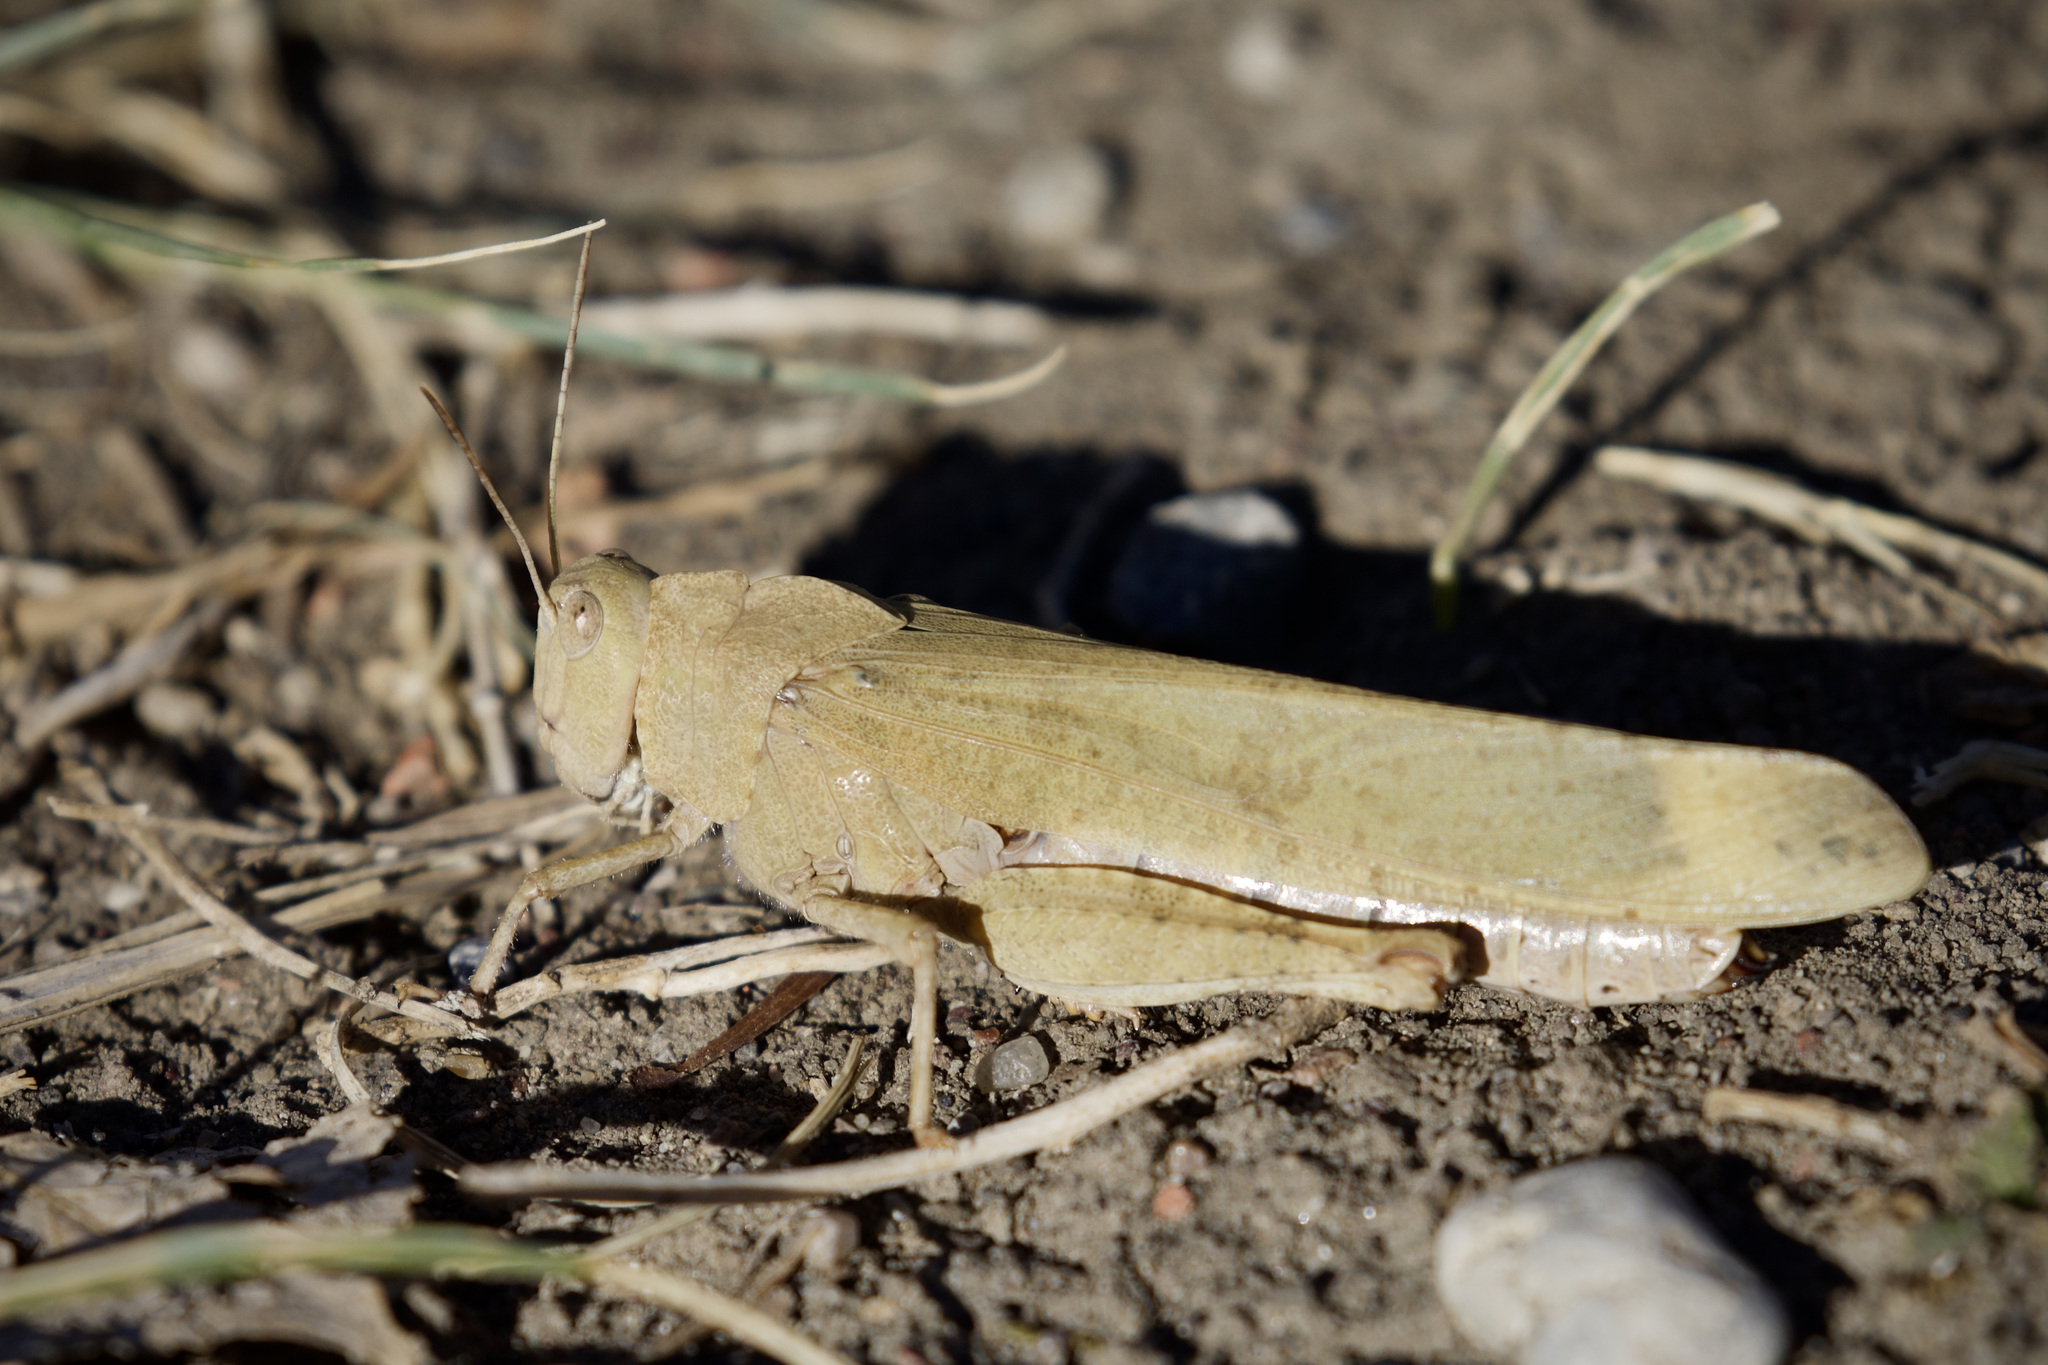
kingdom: Animalia
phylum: Arthropoda
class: Insecta
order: Orthoptera
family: Acrididae
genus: Dissosteira
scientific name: Dissosteira carolina
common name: Carolina grasshopper
